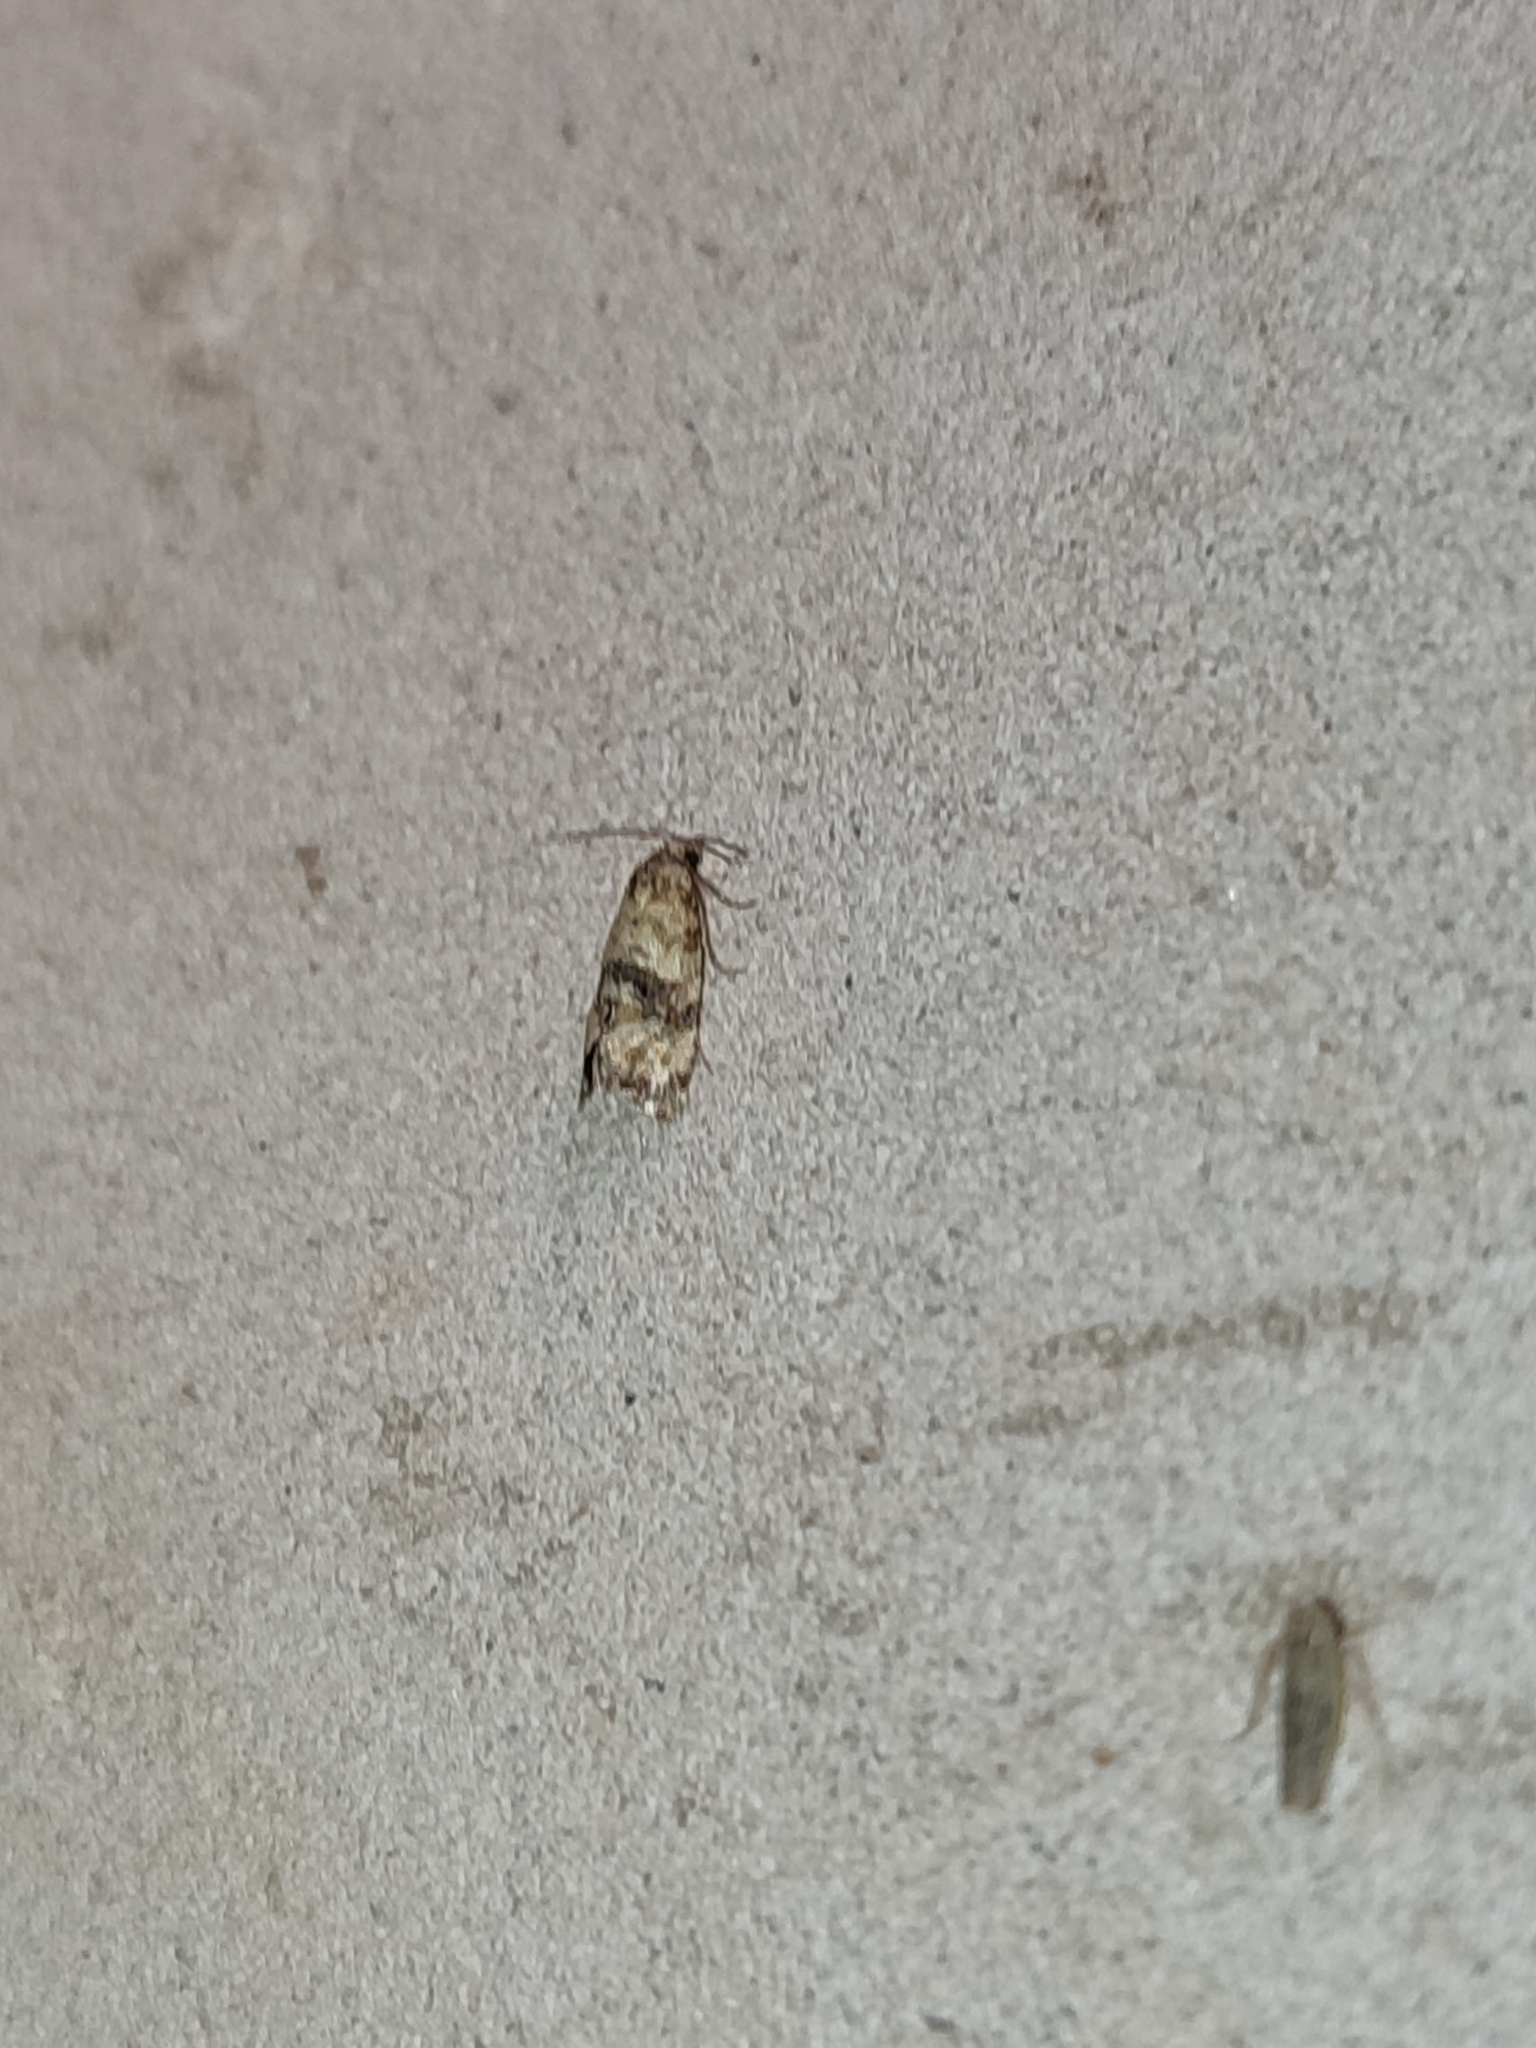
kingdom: Animalia
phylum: Arthropoda
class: Insecta
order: Lepidoptera
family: Tortricidae
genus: Cochylis
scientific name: Cochylis atricapitana
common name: Tortricid moth
